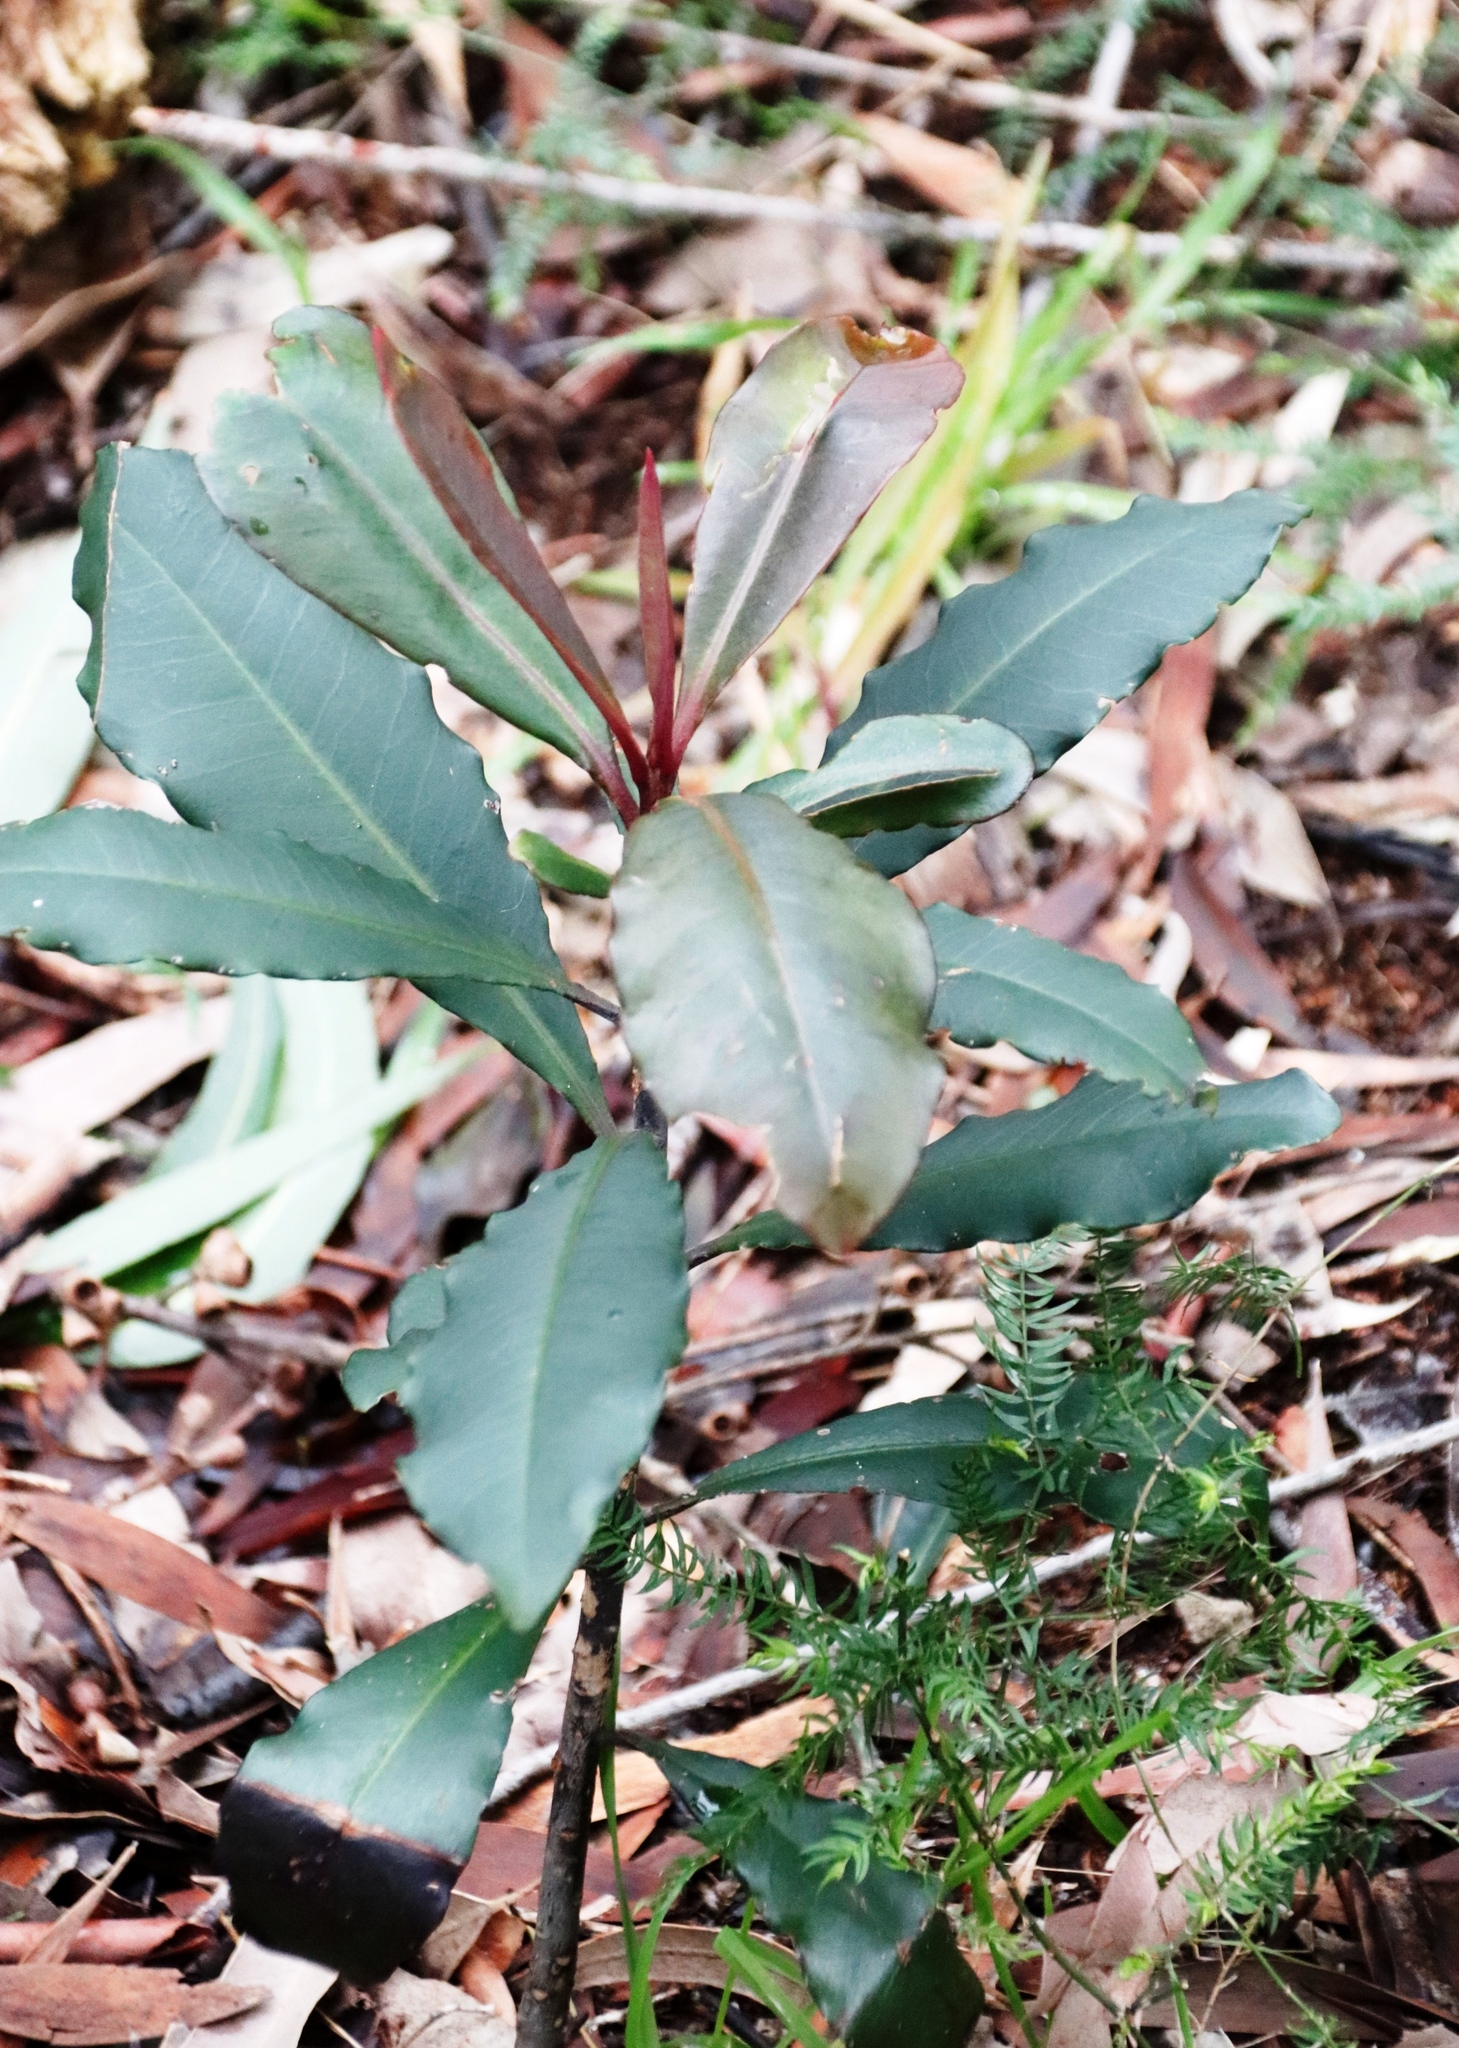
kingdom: Plantae
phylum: Tracheophyta
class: Magnoliopsida
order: Ericales
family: Primulaceae
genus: Myrsine
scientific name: Myrsine melanophloeos
